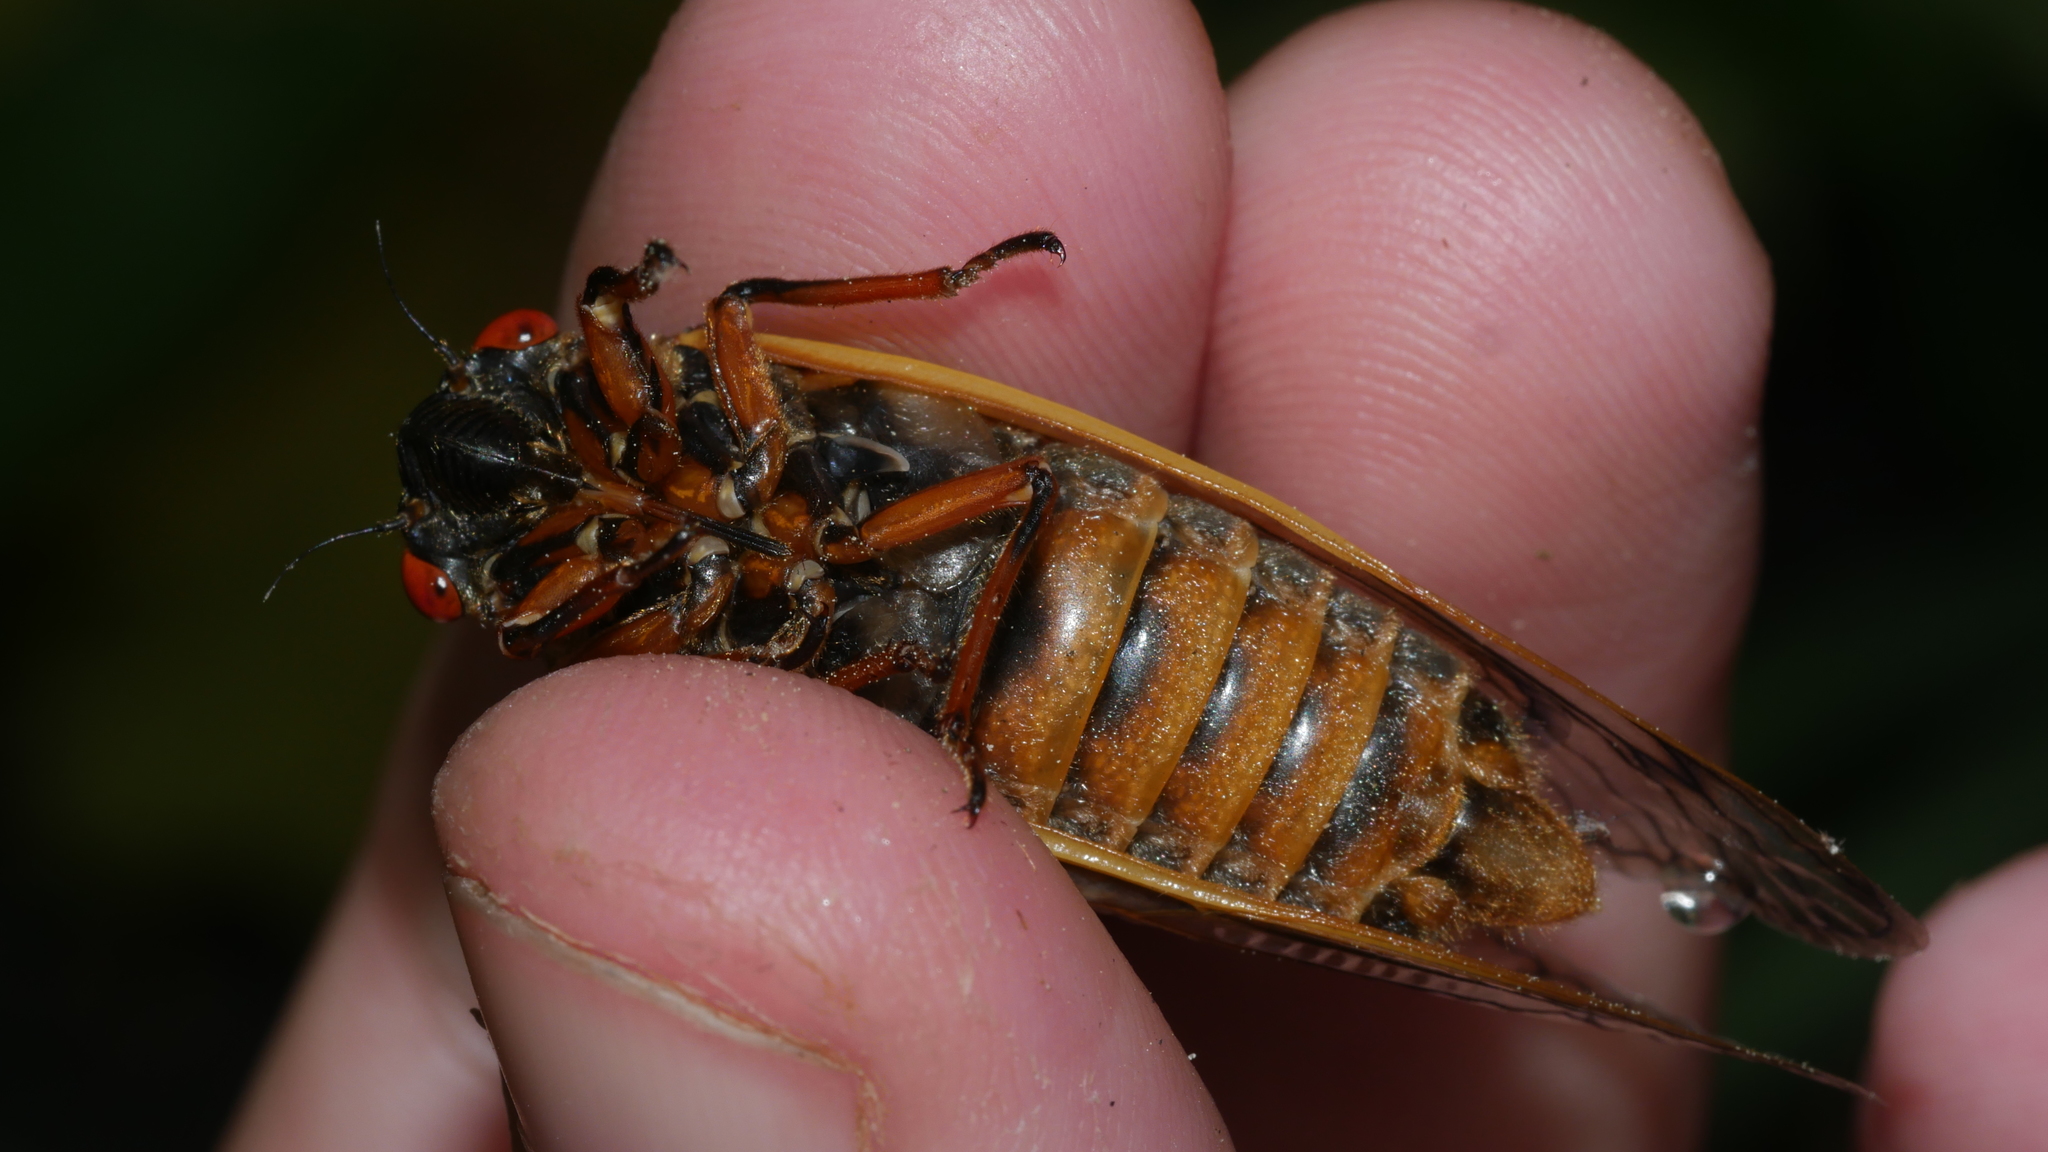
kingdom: Animalia
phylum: Arthropoda
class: Insecta
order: Hemiptera
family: Cicadidae
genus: Magicicada
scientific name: Magicicada septendecim
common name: Periodical cicada
